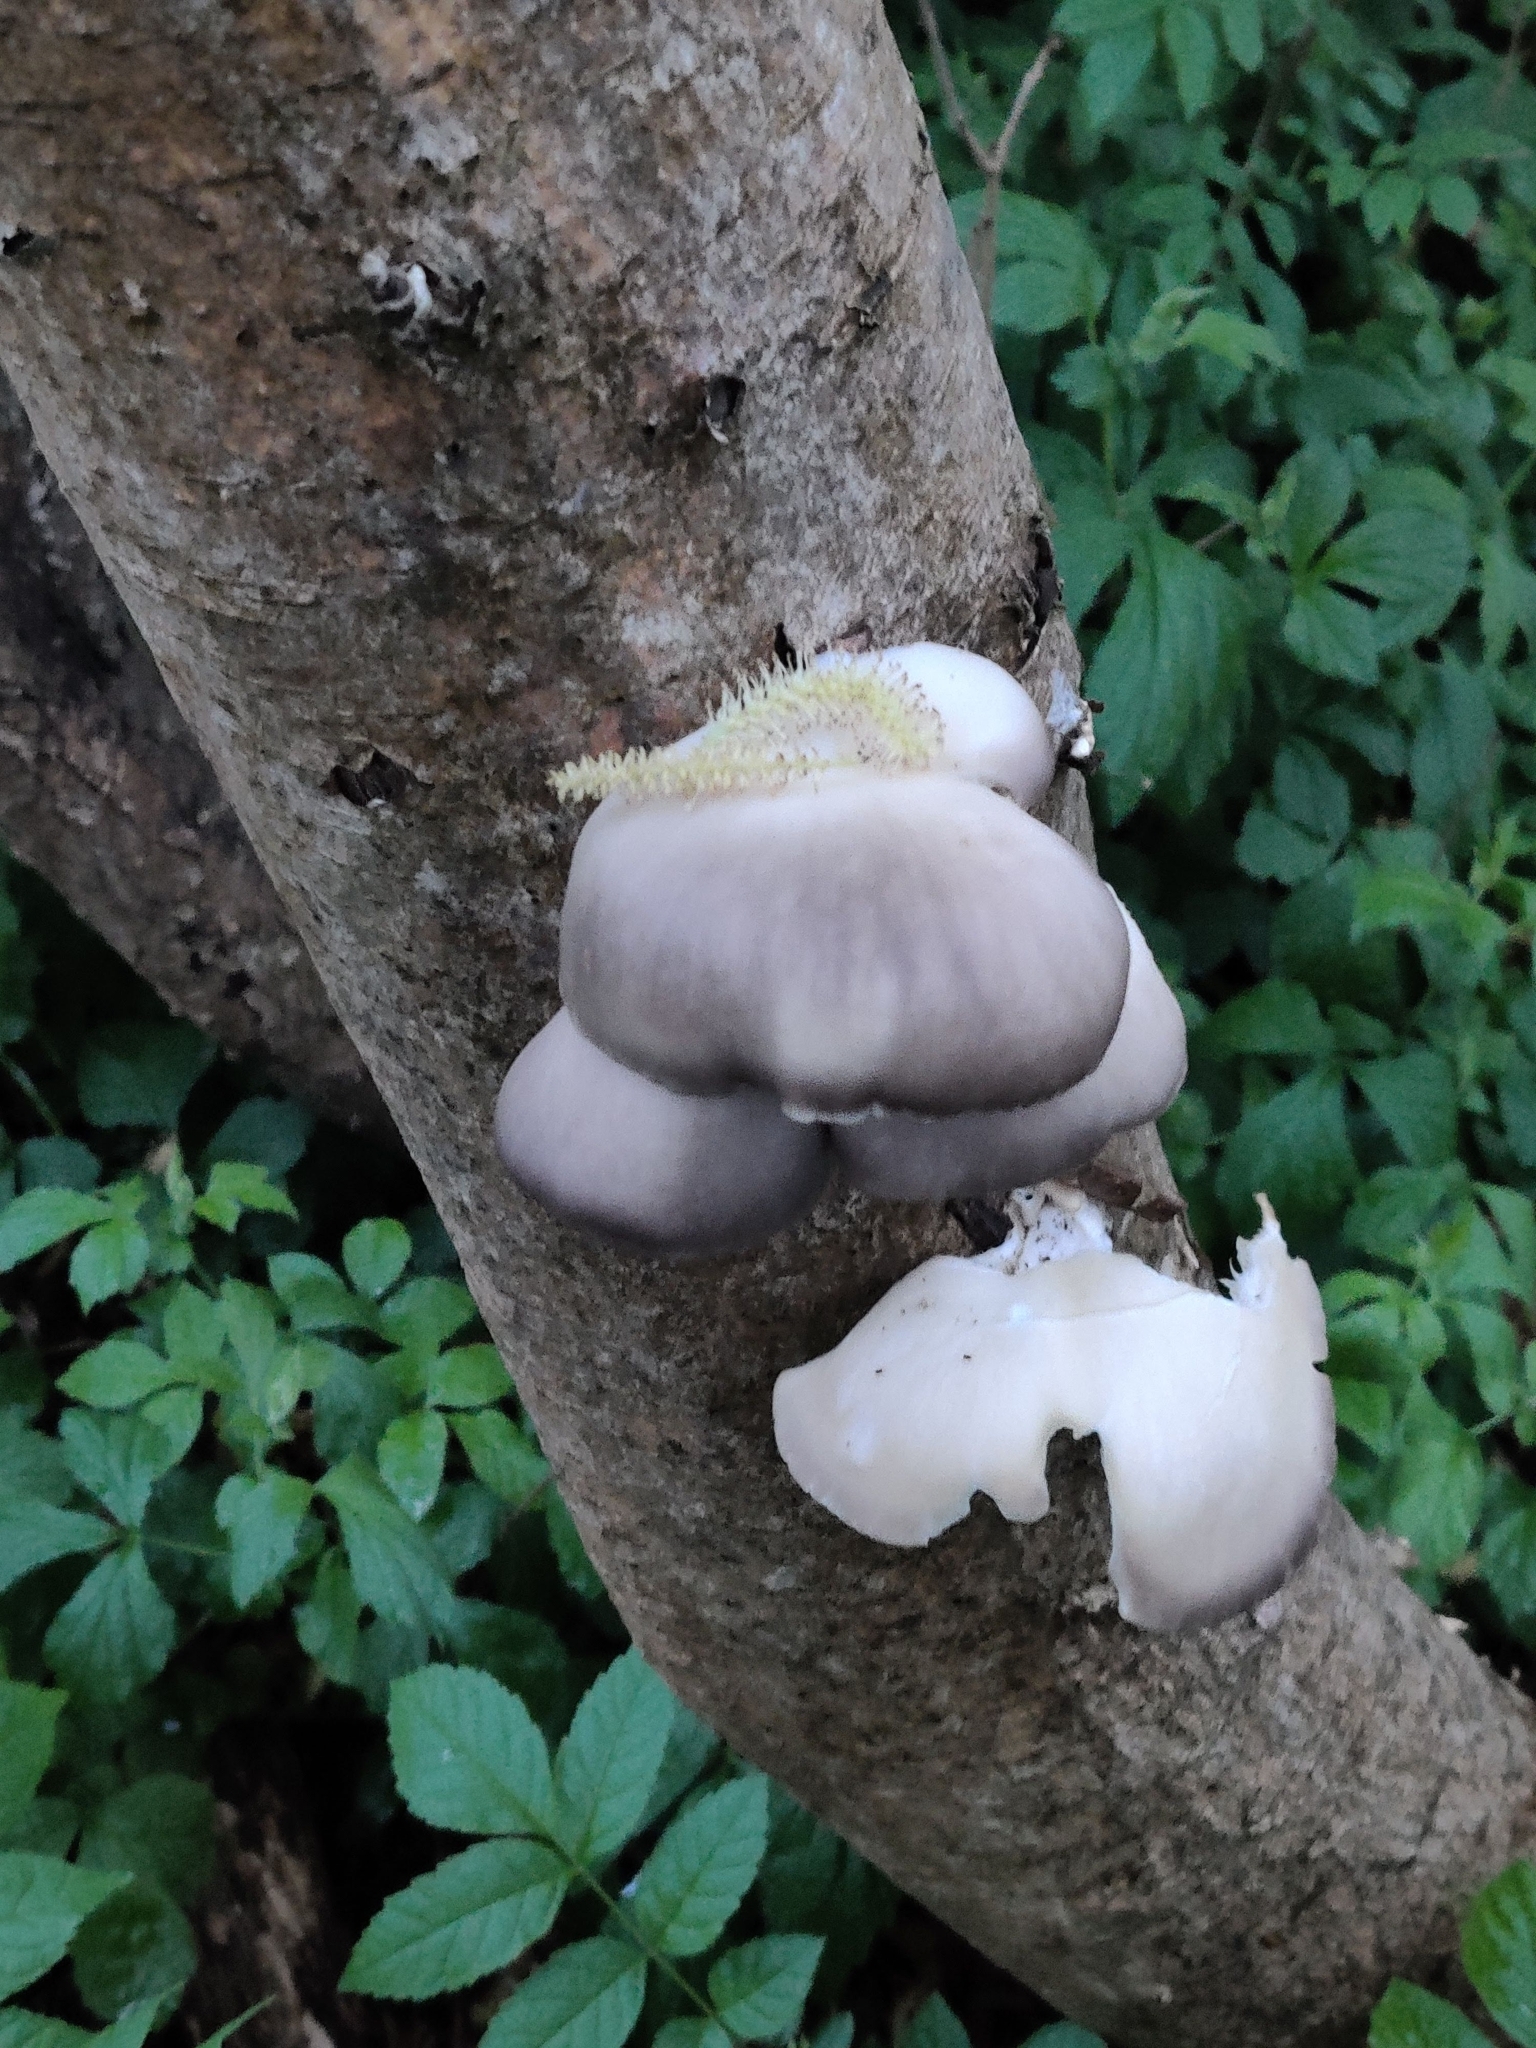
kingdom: Fungi
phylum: Basidiomycota
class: Agaricomycetes
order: Agaricales
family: Pleurotaceae
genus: Pleurotus
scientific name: Pleurotus ostreatus
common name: Oyster mushroom
